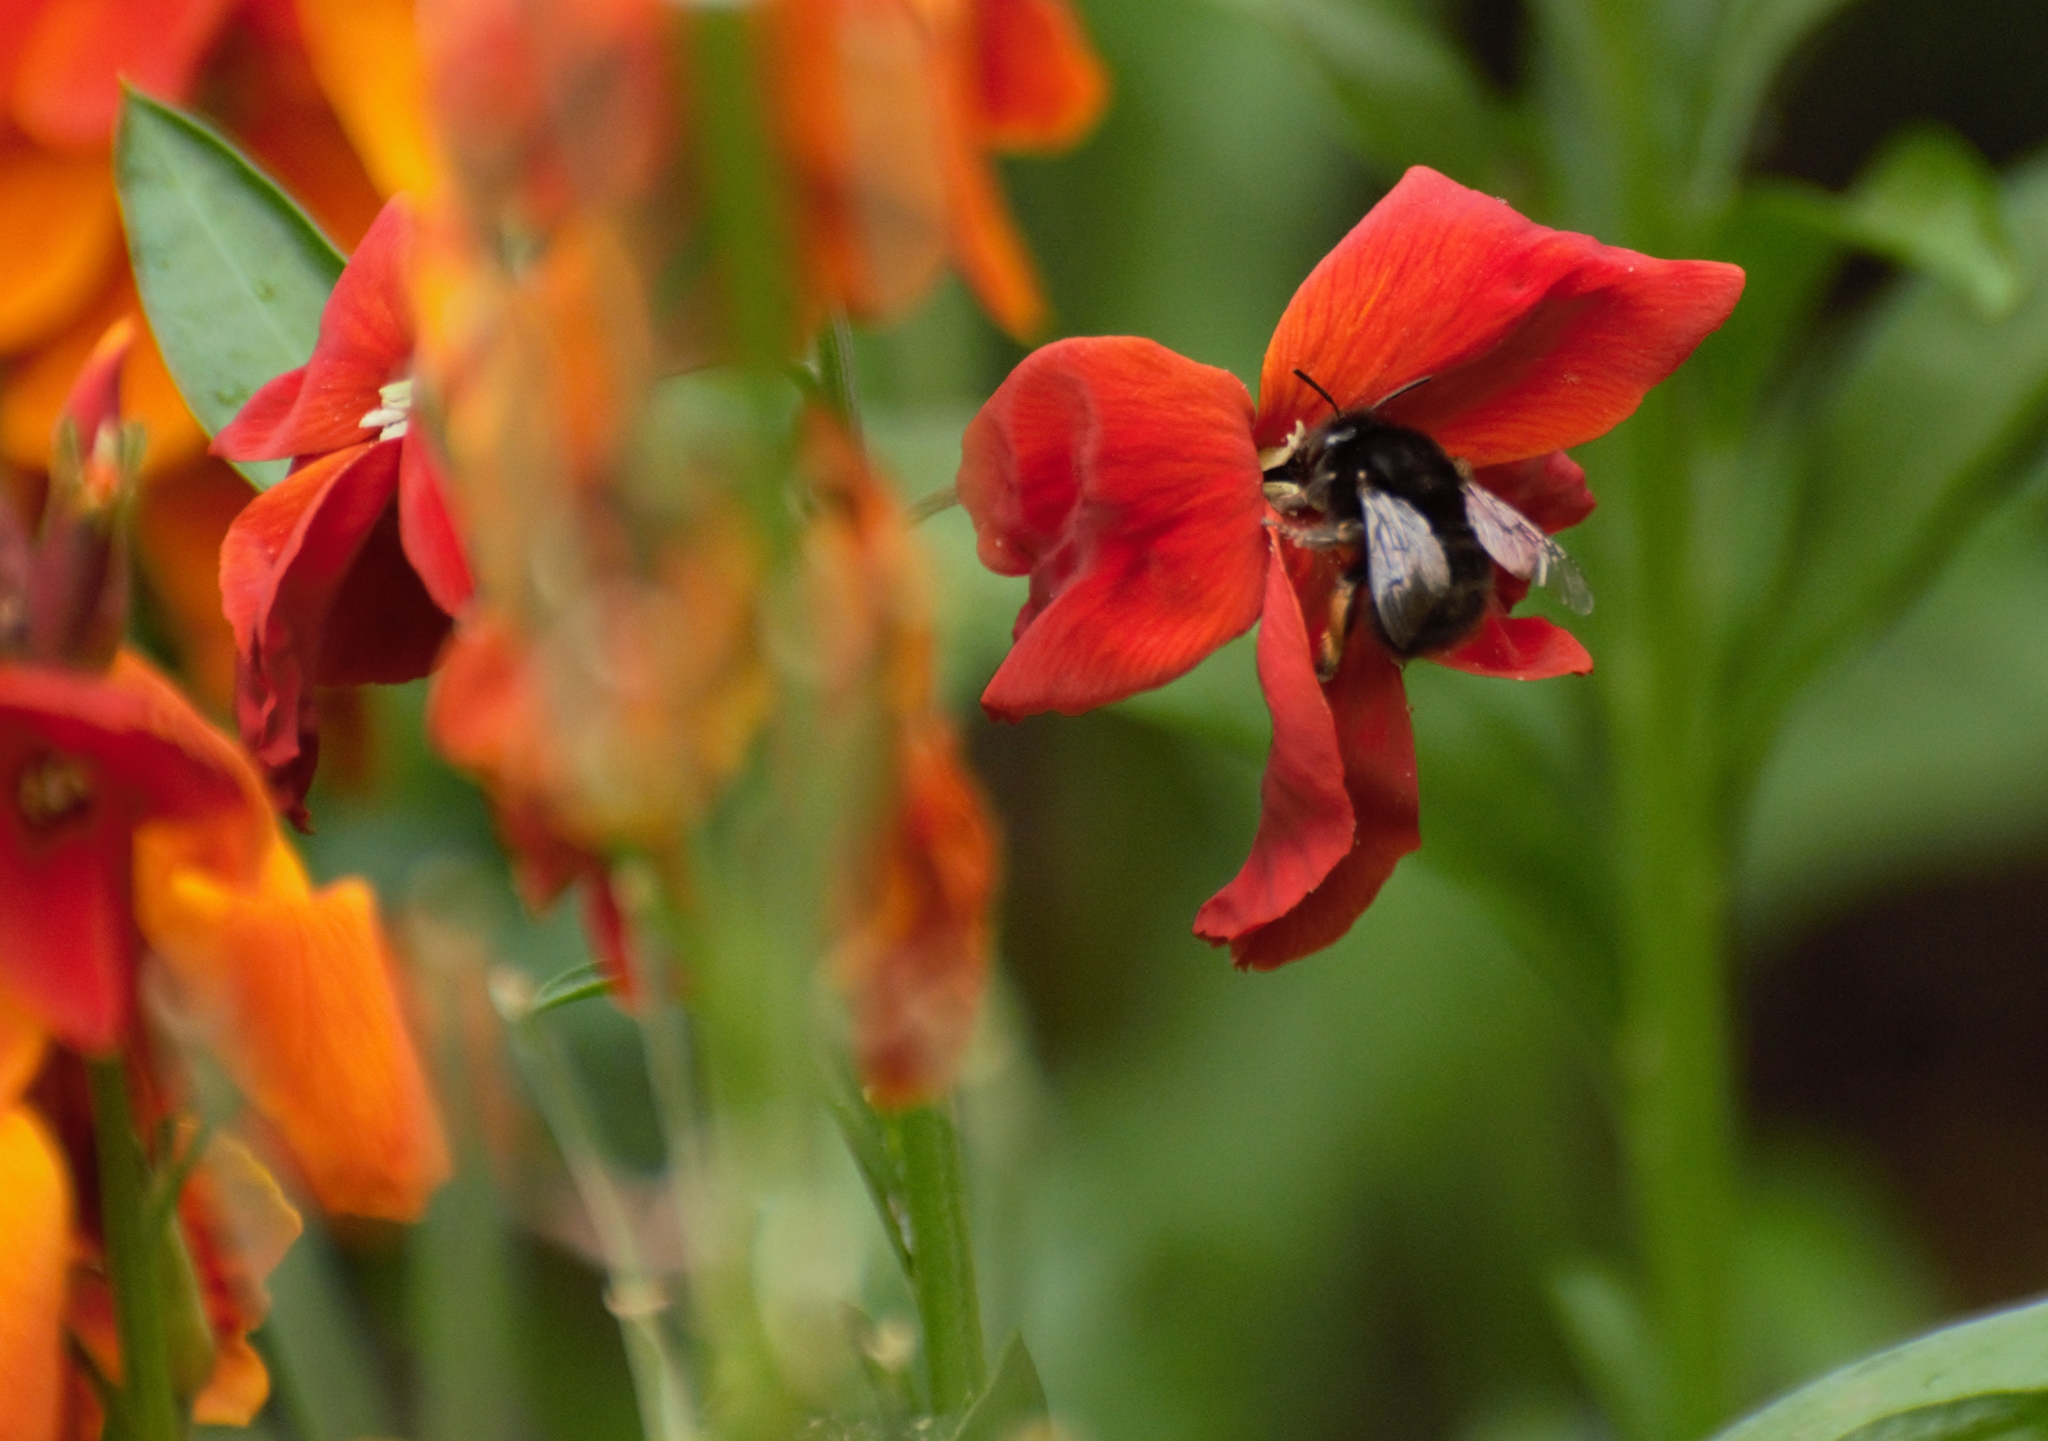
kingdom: Animalia
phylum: Arthropoda
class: Insecta
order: Hymenoptera
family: Apidae
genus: Anthophora
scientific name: Anthophora plumipes
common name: Hairy-footed flower bee
